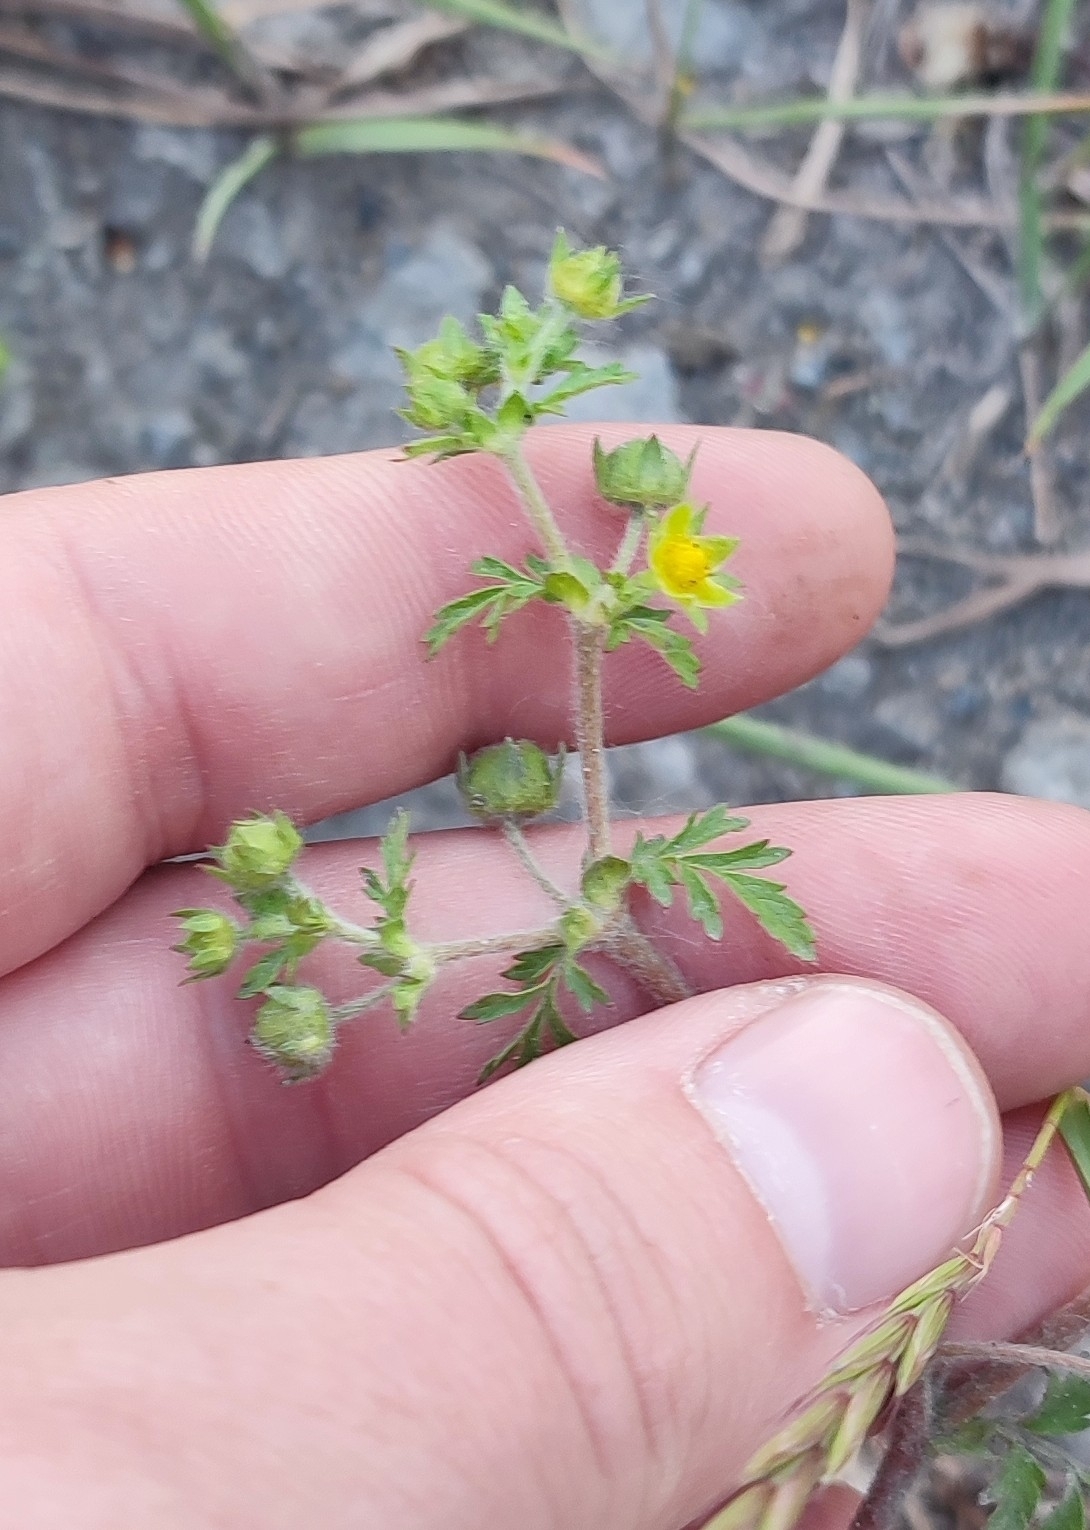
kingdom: Plantae
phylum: Tracheophyta
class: Magnoliopsida
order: Rosales
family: Rosaceae
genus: Potentilla
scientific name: Potentilla supina
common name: Prostrate cinquefoil
